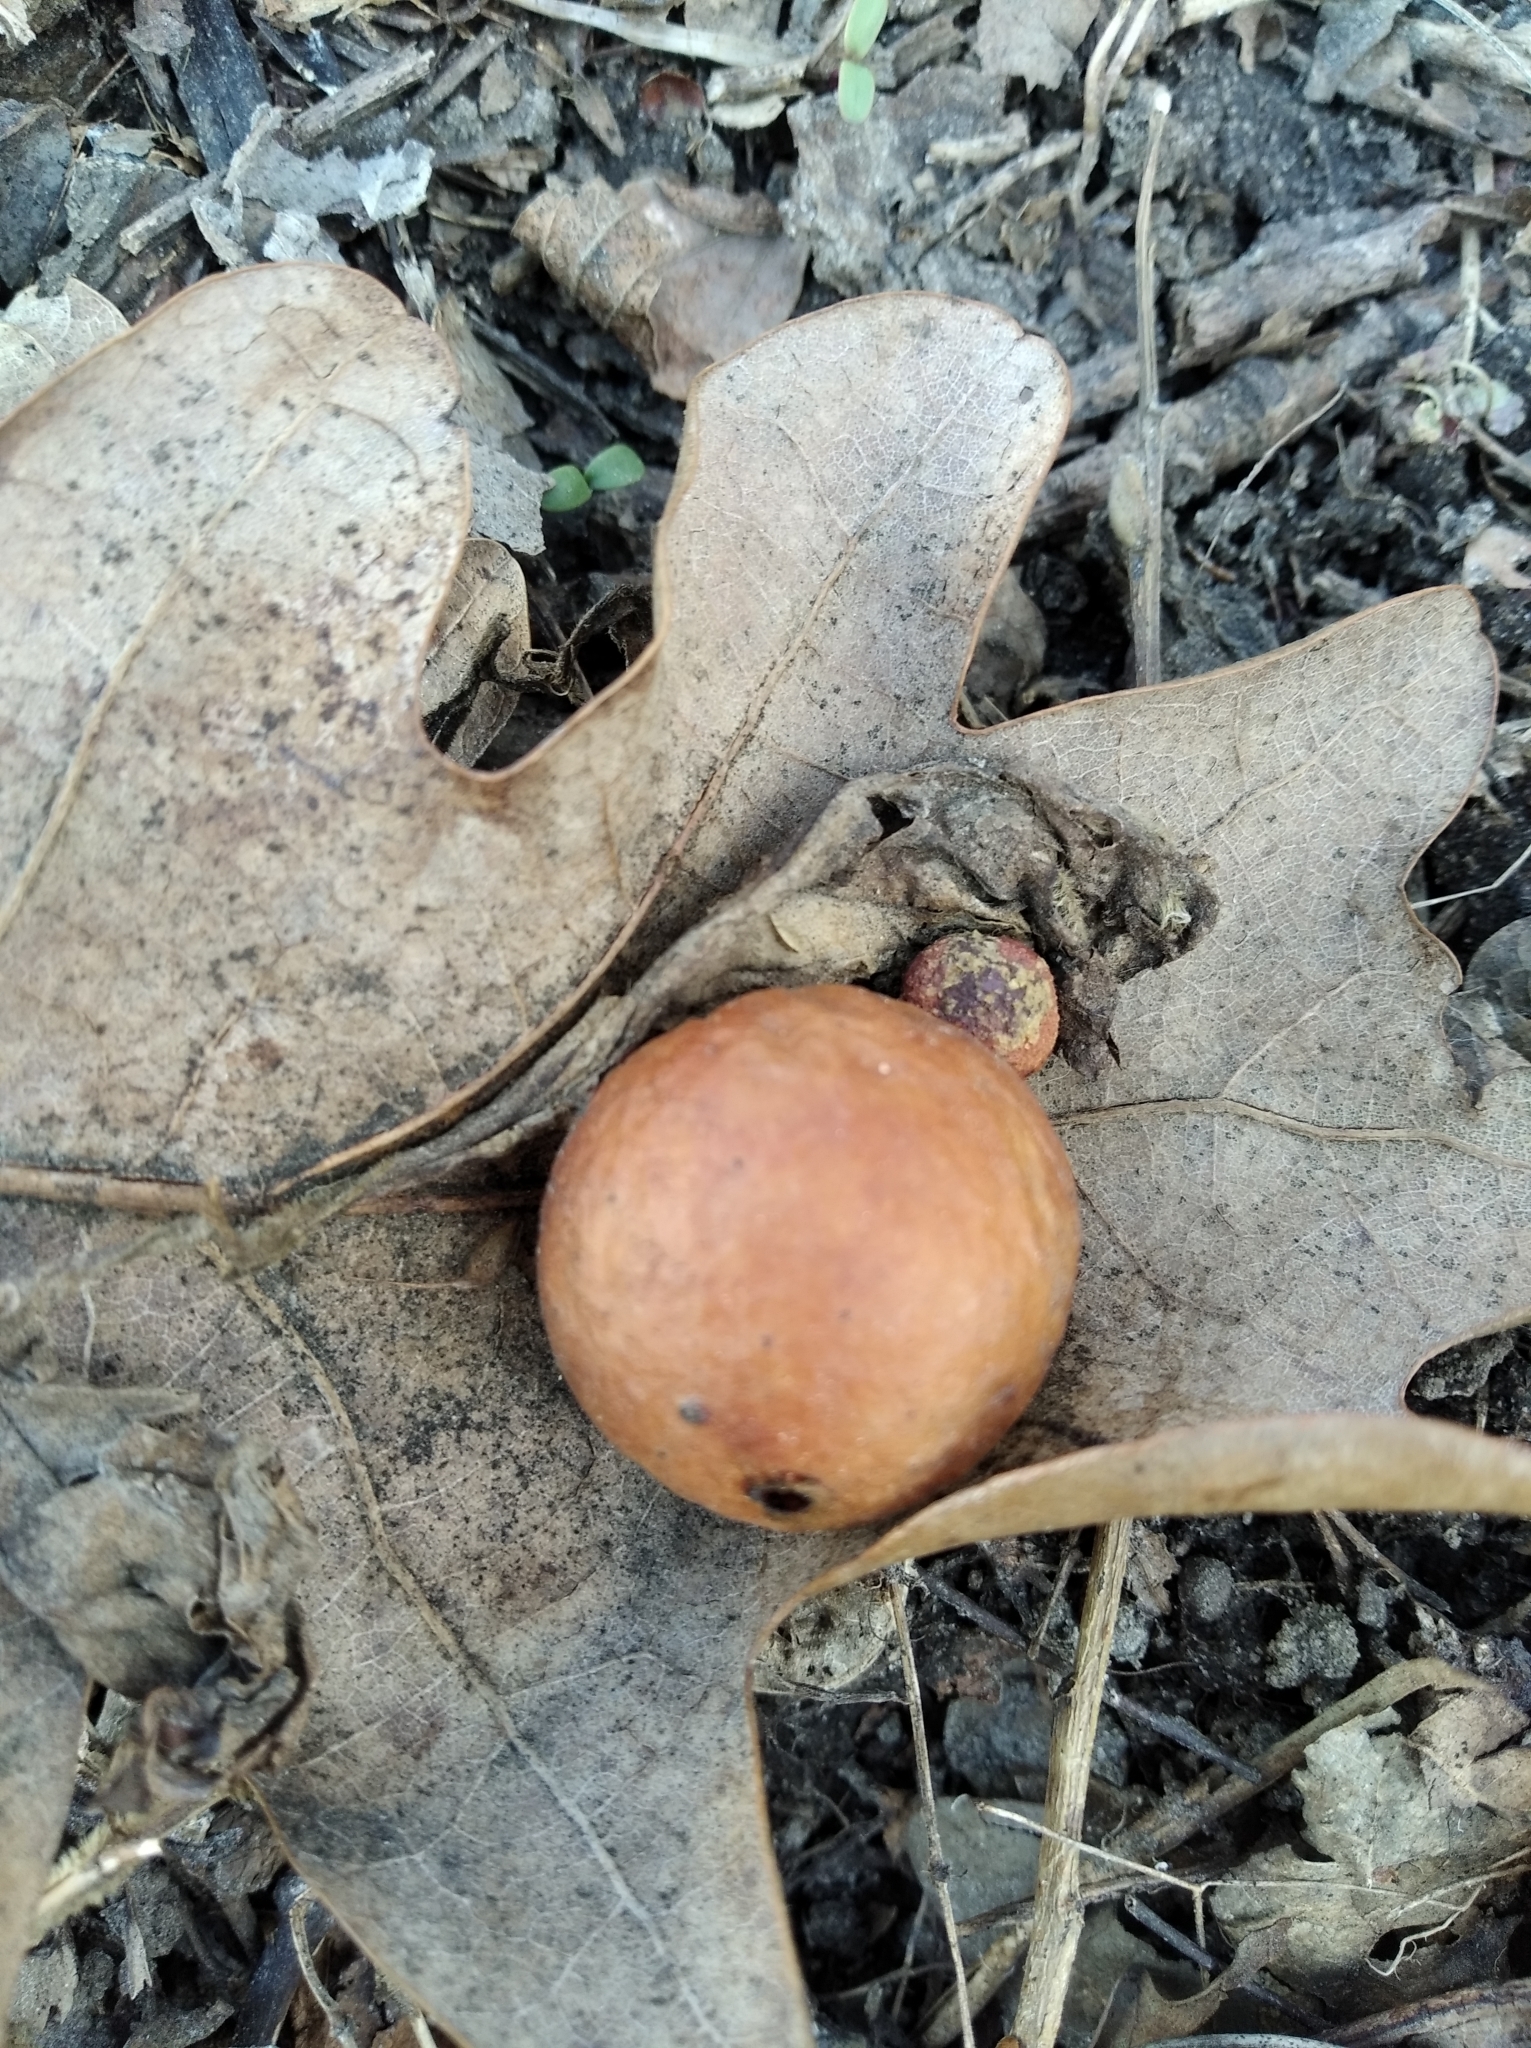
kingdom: Animalia
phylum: Arthropoda
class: Insecta
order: Hymenoptera
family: Cynipidae
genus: Cynips
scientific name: Cynips quercusfolii
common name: Cherry gall
